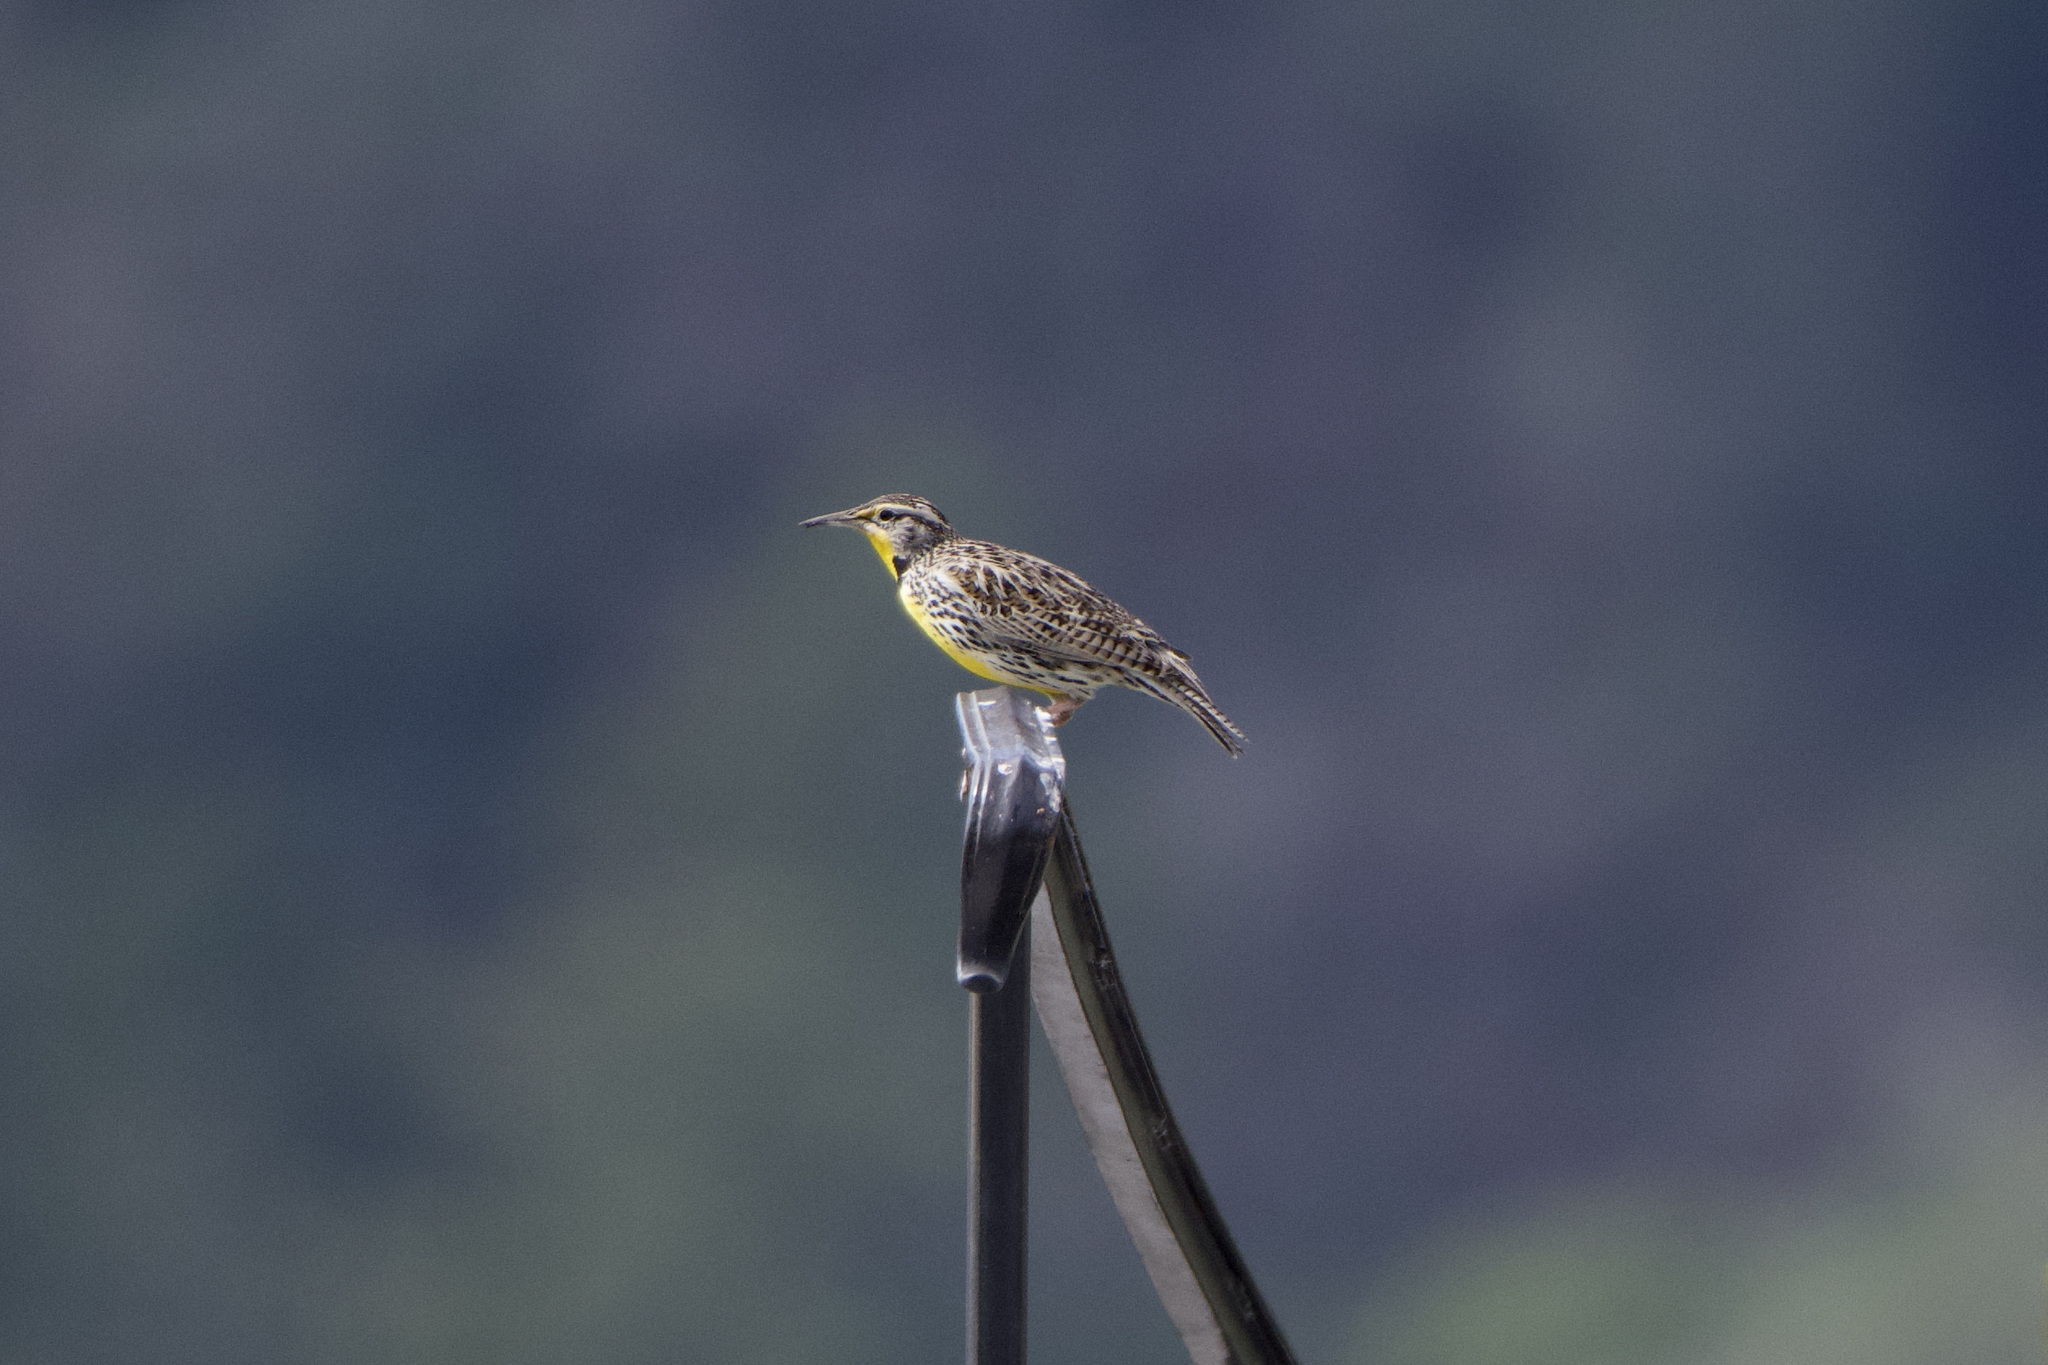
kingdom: Animalia
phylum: Chordata
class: Aves
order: Passeriformes
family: Icteridae
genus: Sturnella
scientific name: Sturnella neglecta
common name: Western meadowlark
